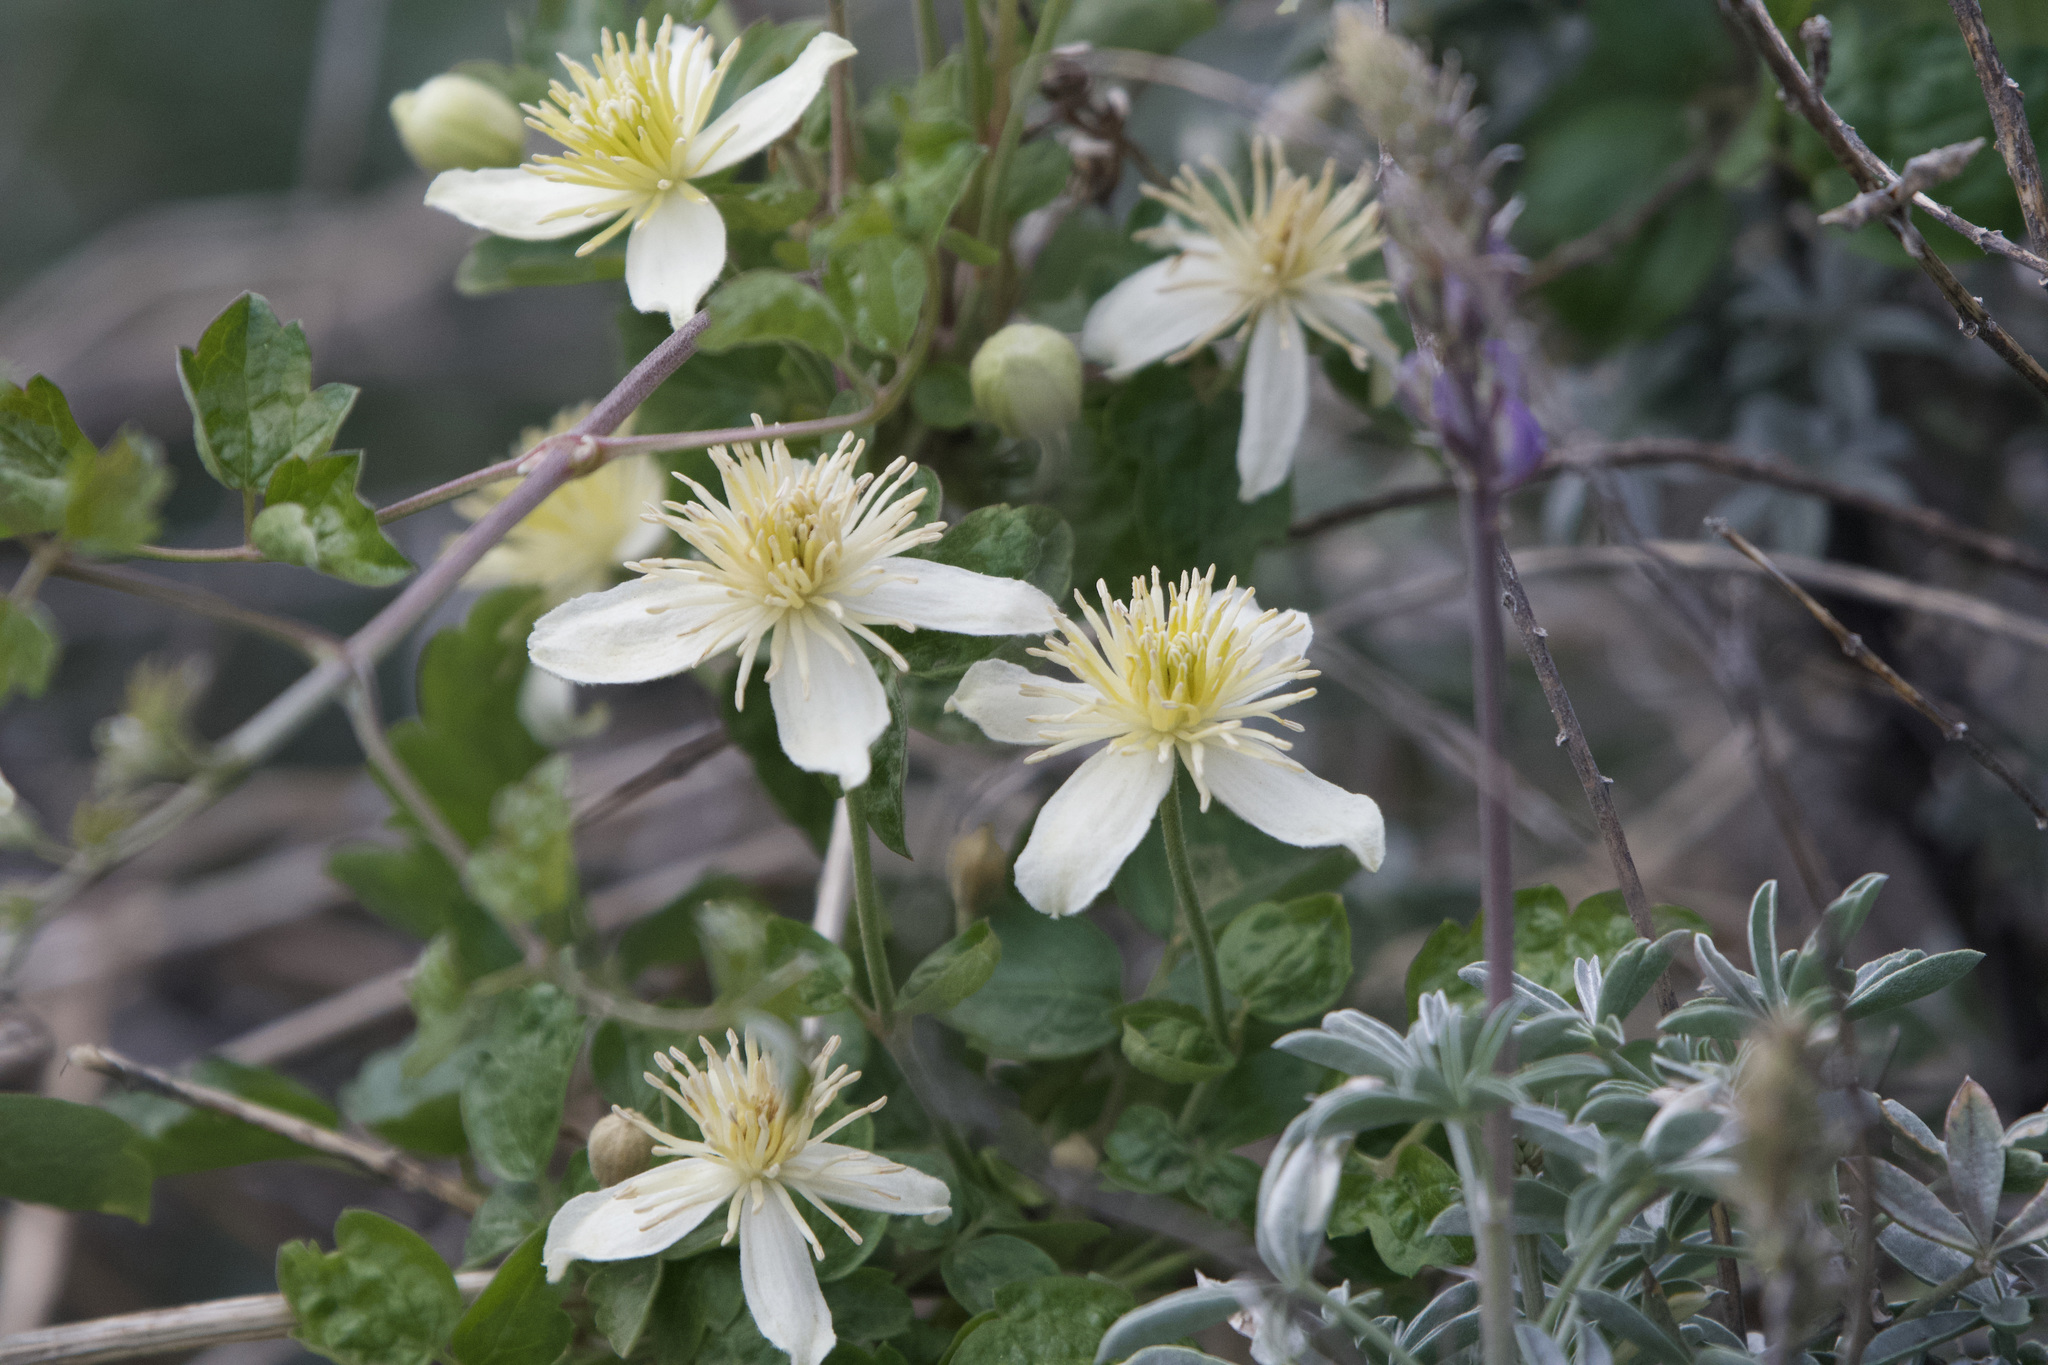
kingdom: Plantae
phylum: Tracheophyta
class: Magnoliopsida
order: Ranunculales
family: Ranunculaceae
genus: Clematis
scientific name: Clematis lasiantha
